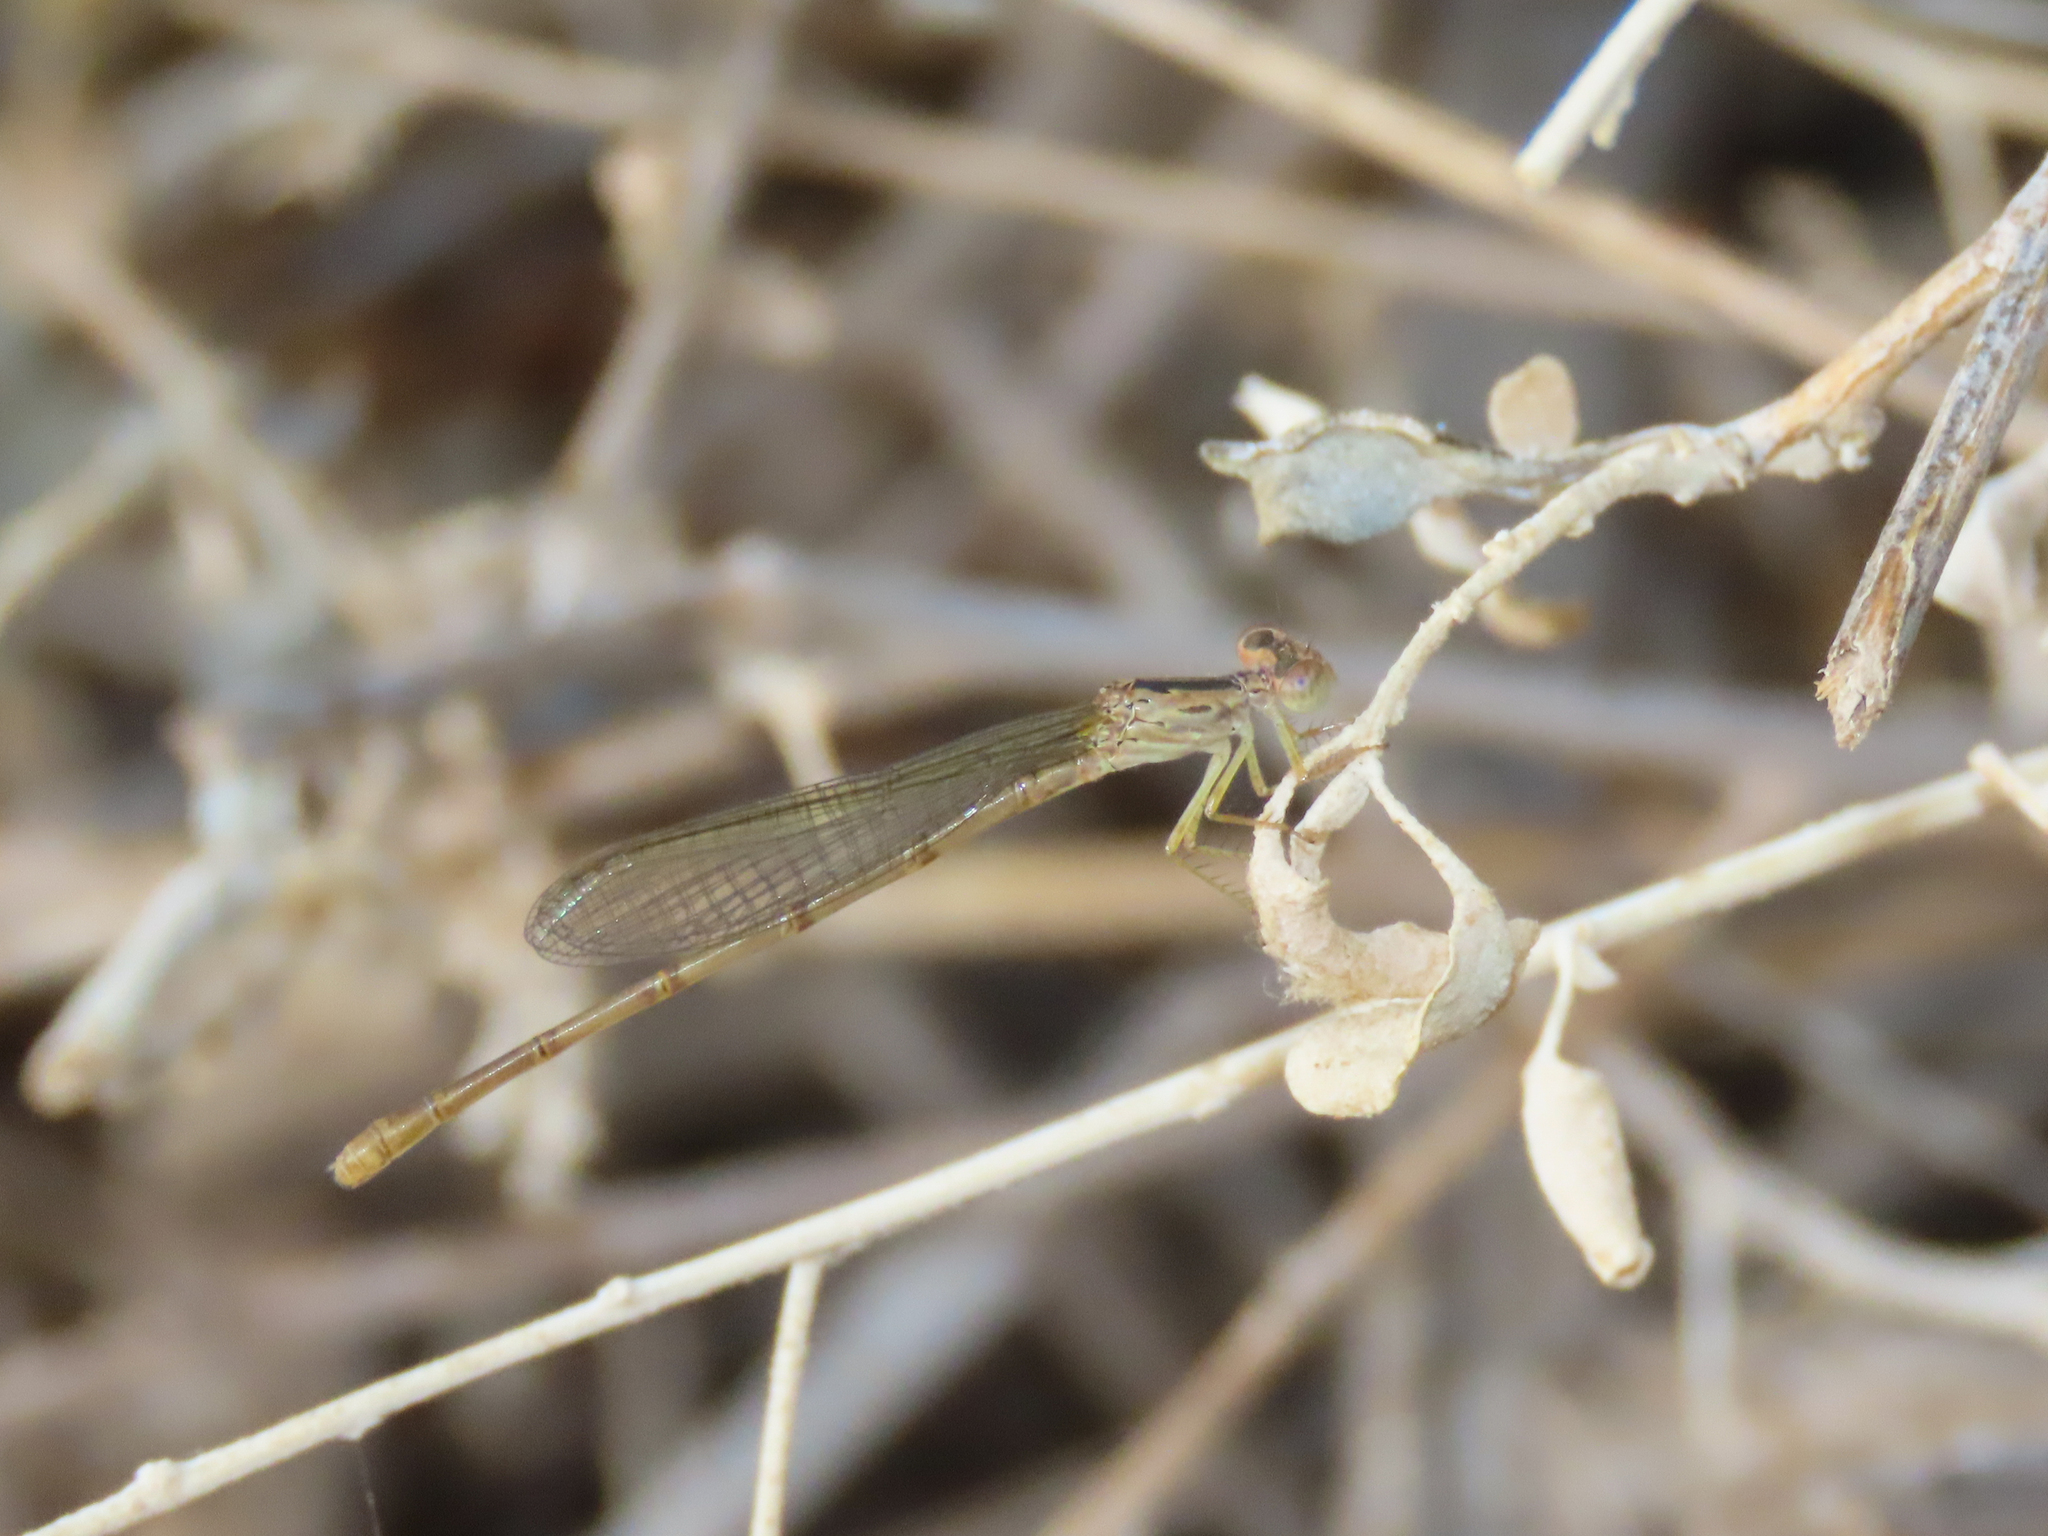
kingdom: Animalia
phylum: Arthropoda
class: Insecta
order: Odonata
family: Coenagrionidae
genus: Telebasis
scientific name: Telebasis salva
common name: Desert firetail
